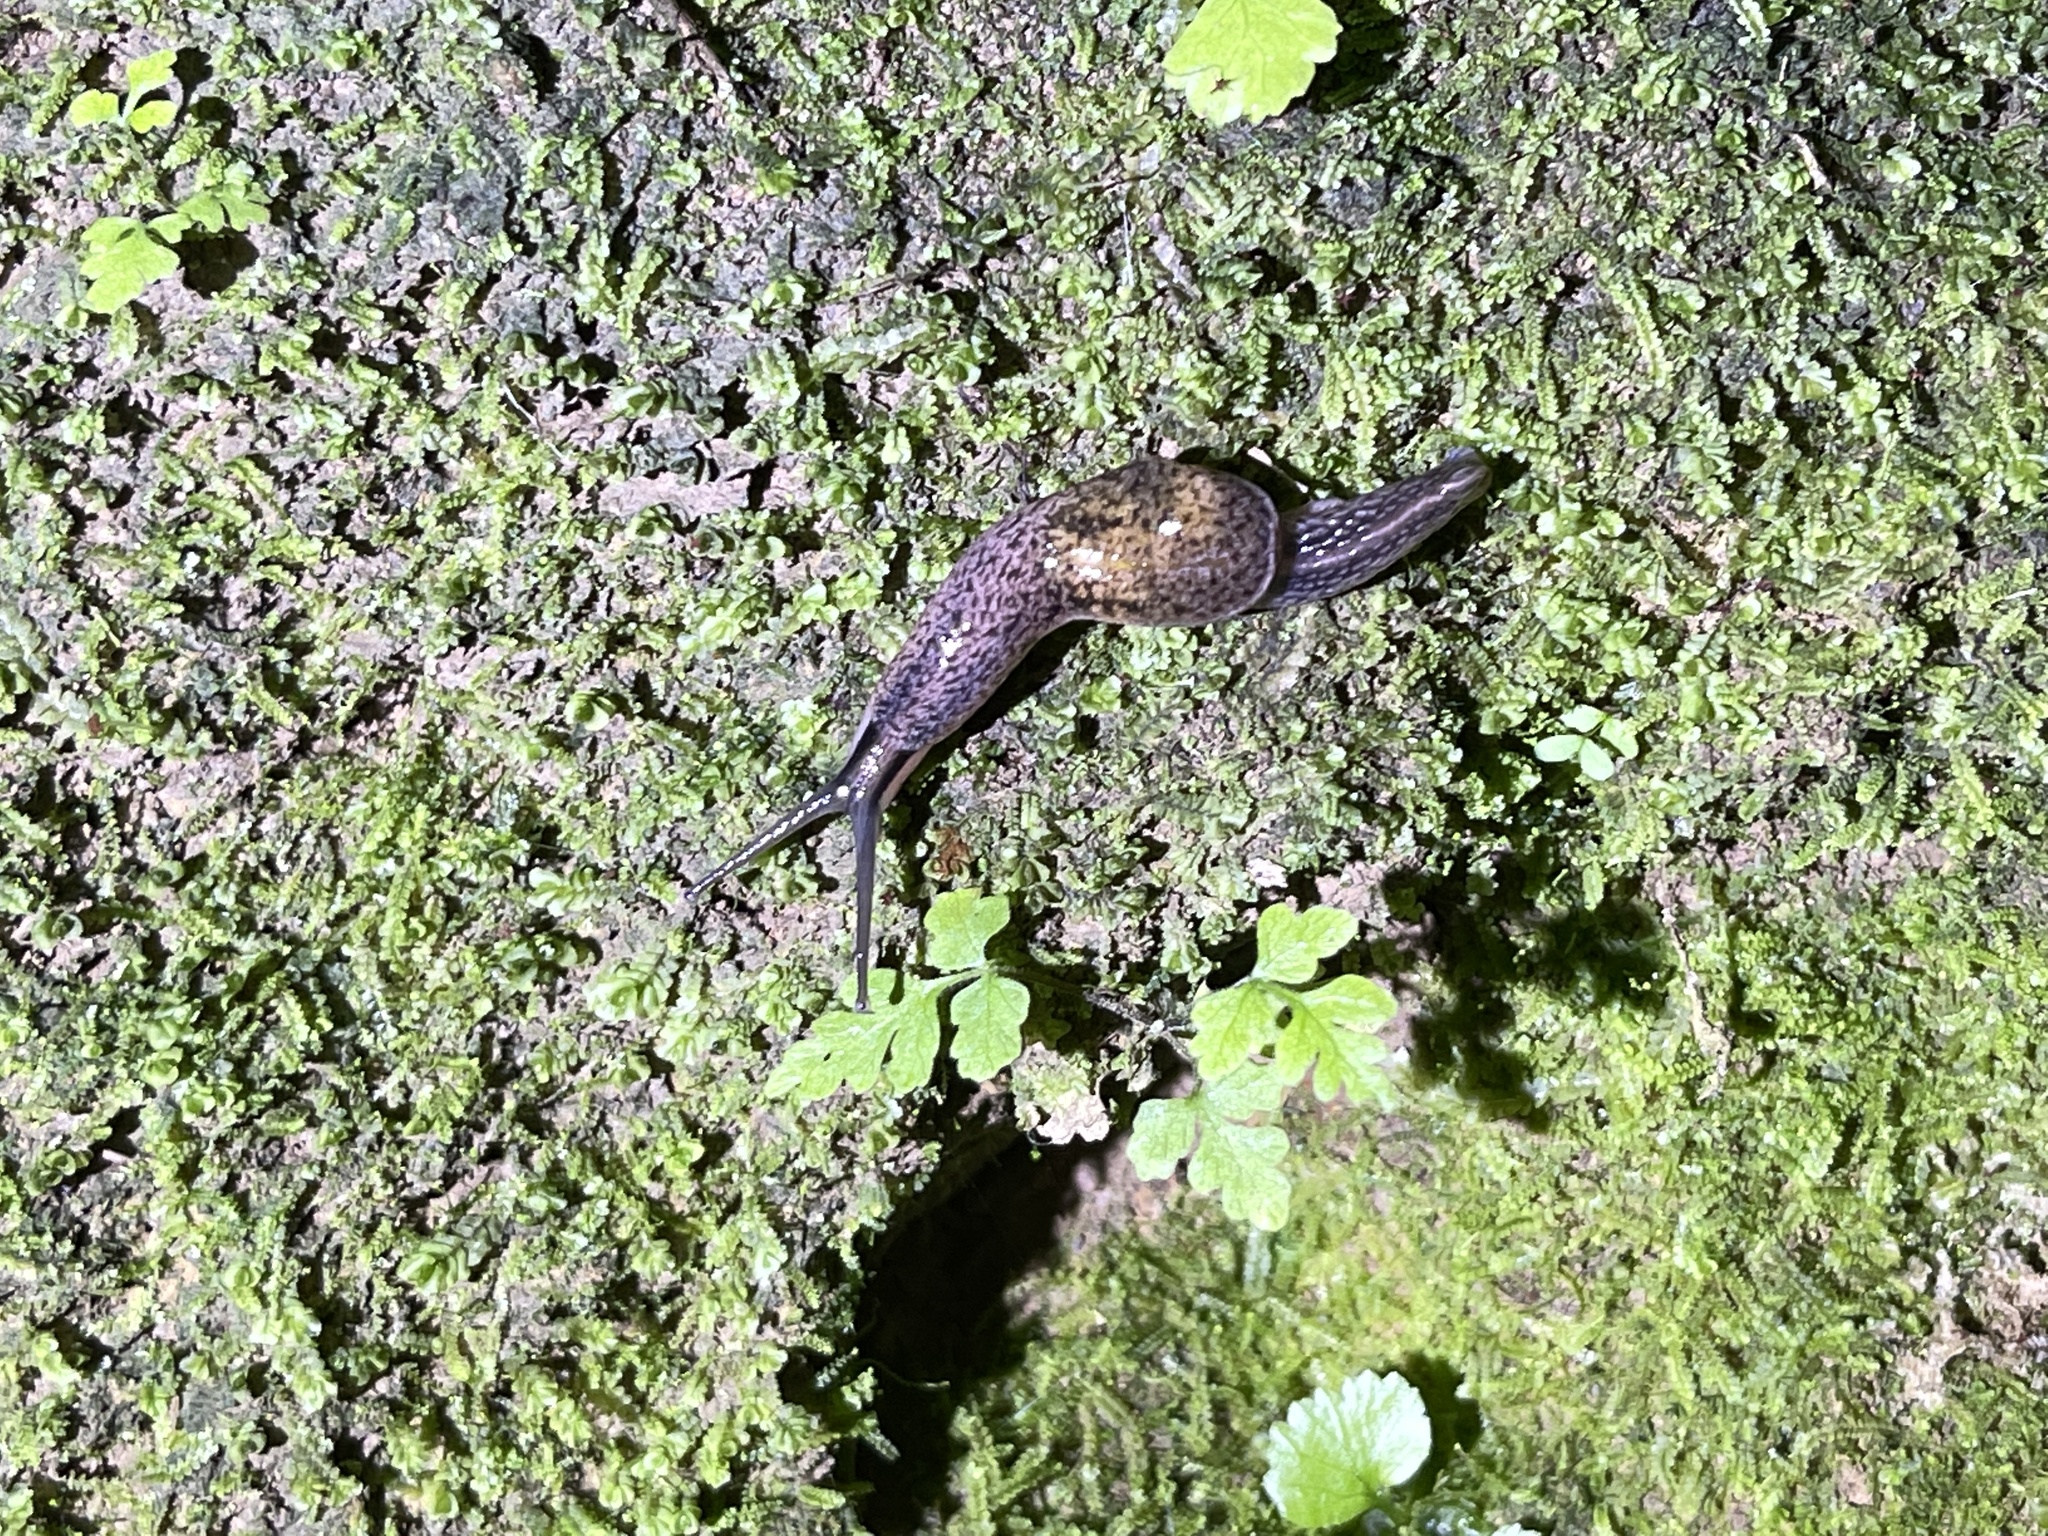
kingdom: Animalia
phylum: Mollusca
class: Gastropoda
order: Stylommatophora
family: Ariophantidae
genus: Parmarion
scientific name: Parmarion martensi
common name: Semi-slug
